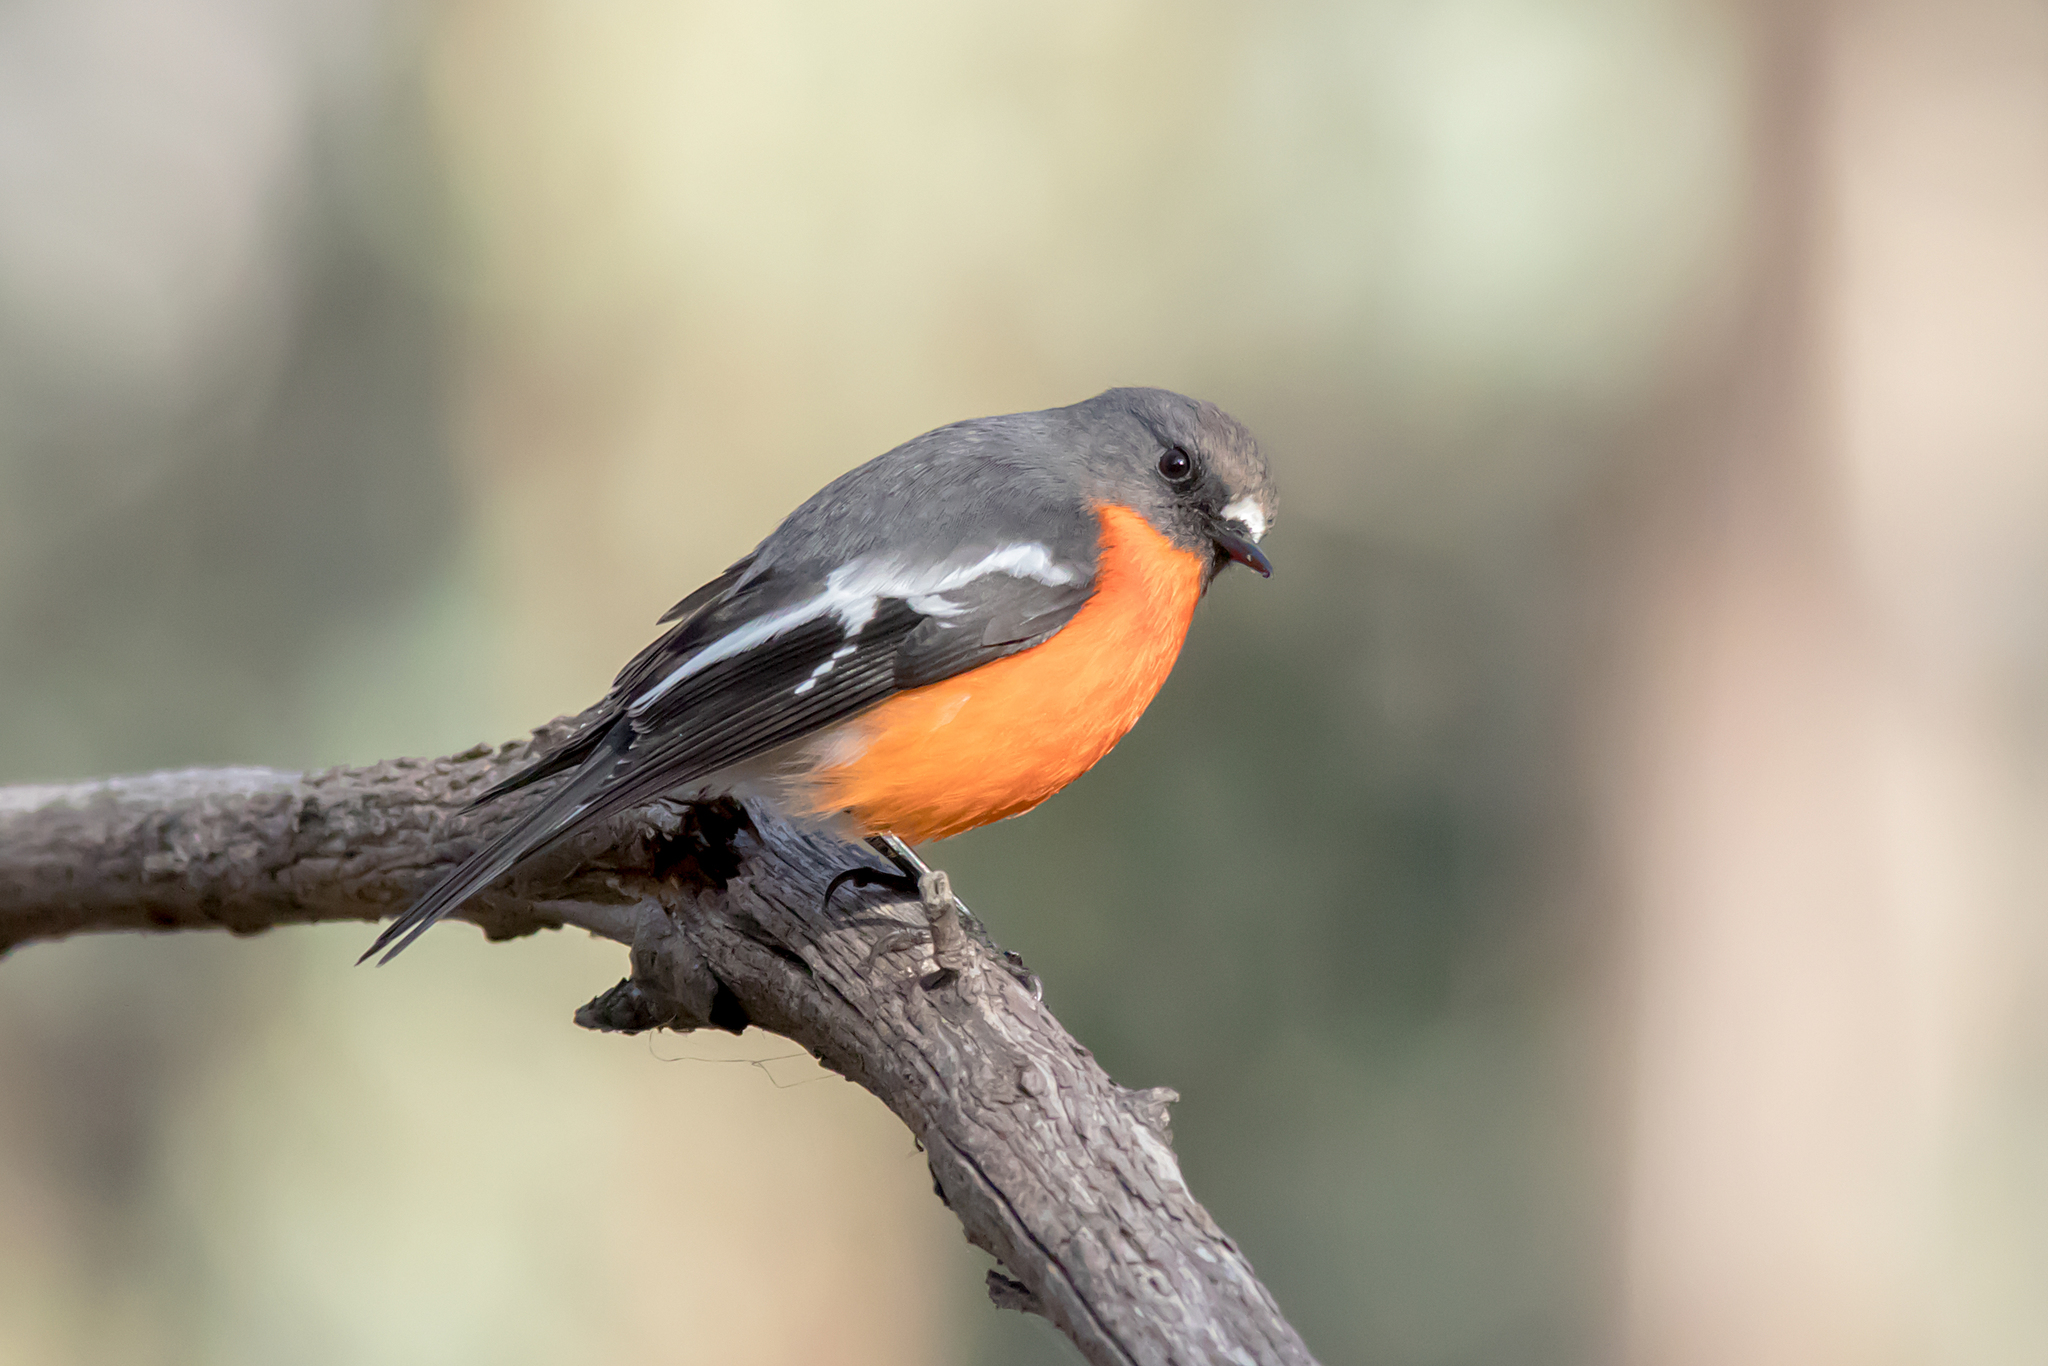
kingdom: Animalia
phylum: Chordata
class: Aves
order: Passeriformes
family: Petroicidae
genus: Petroica
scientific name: Petroica phoenicea
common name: Flame robin
